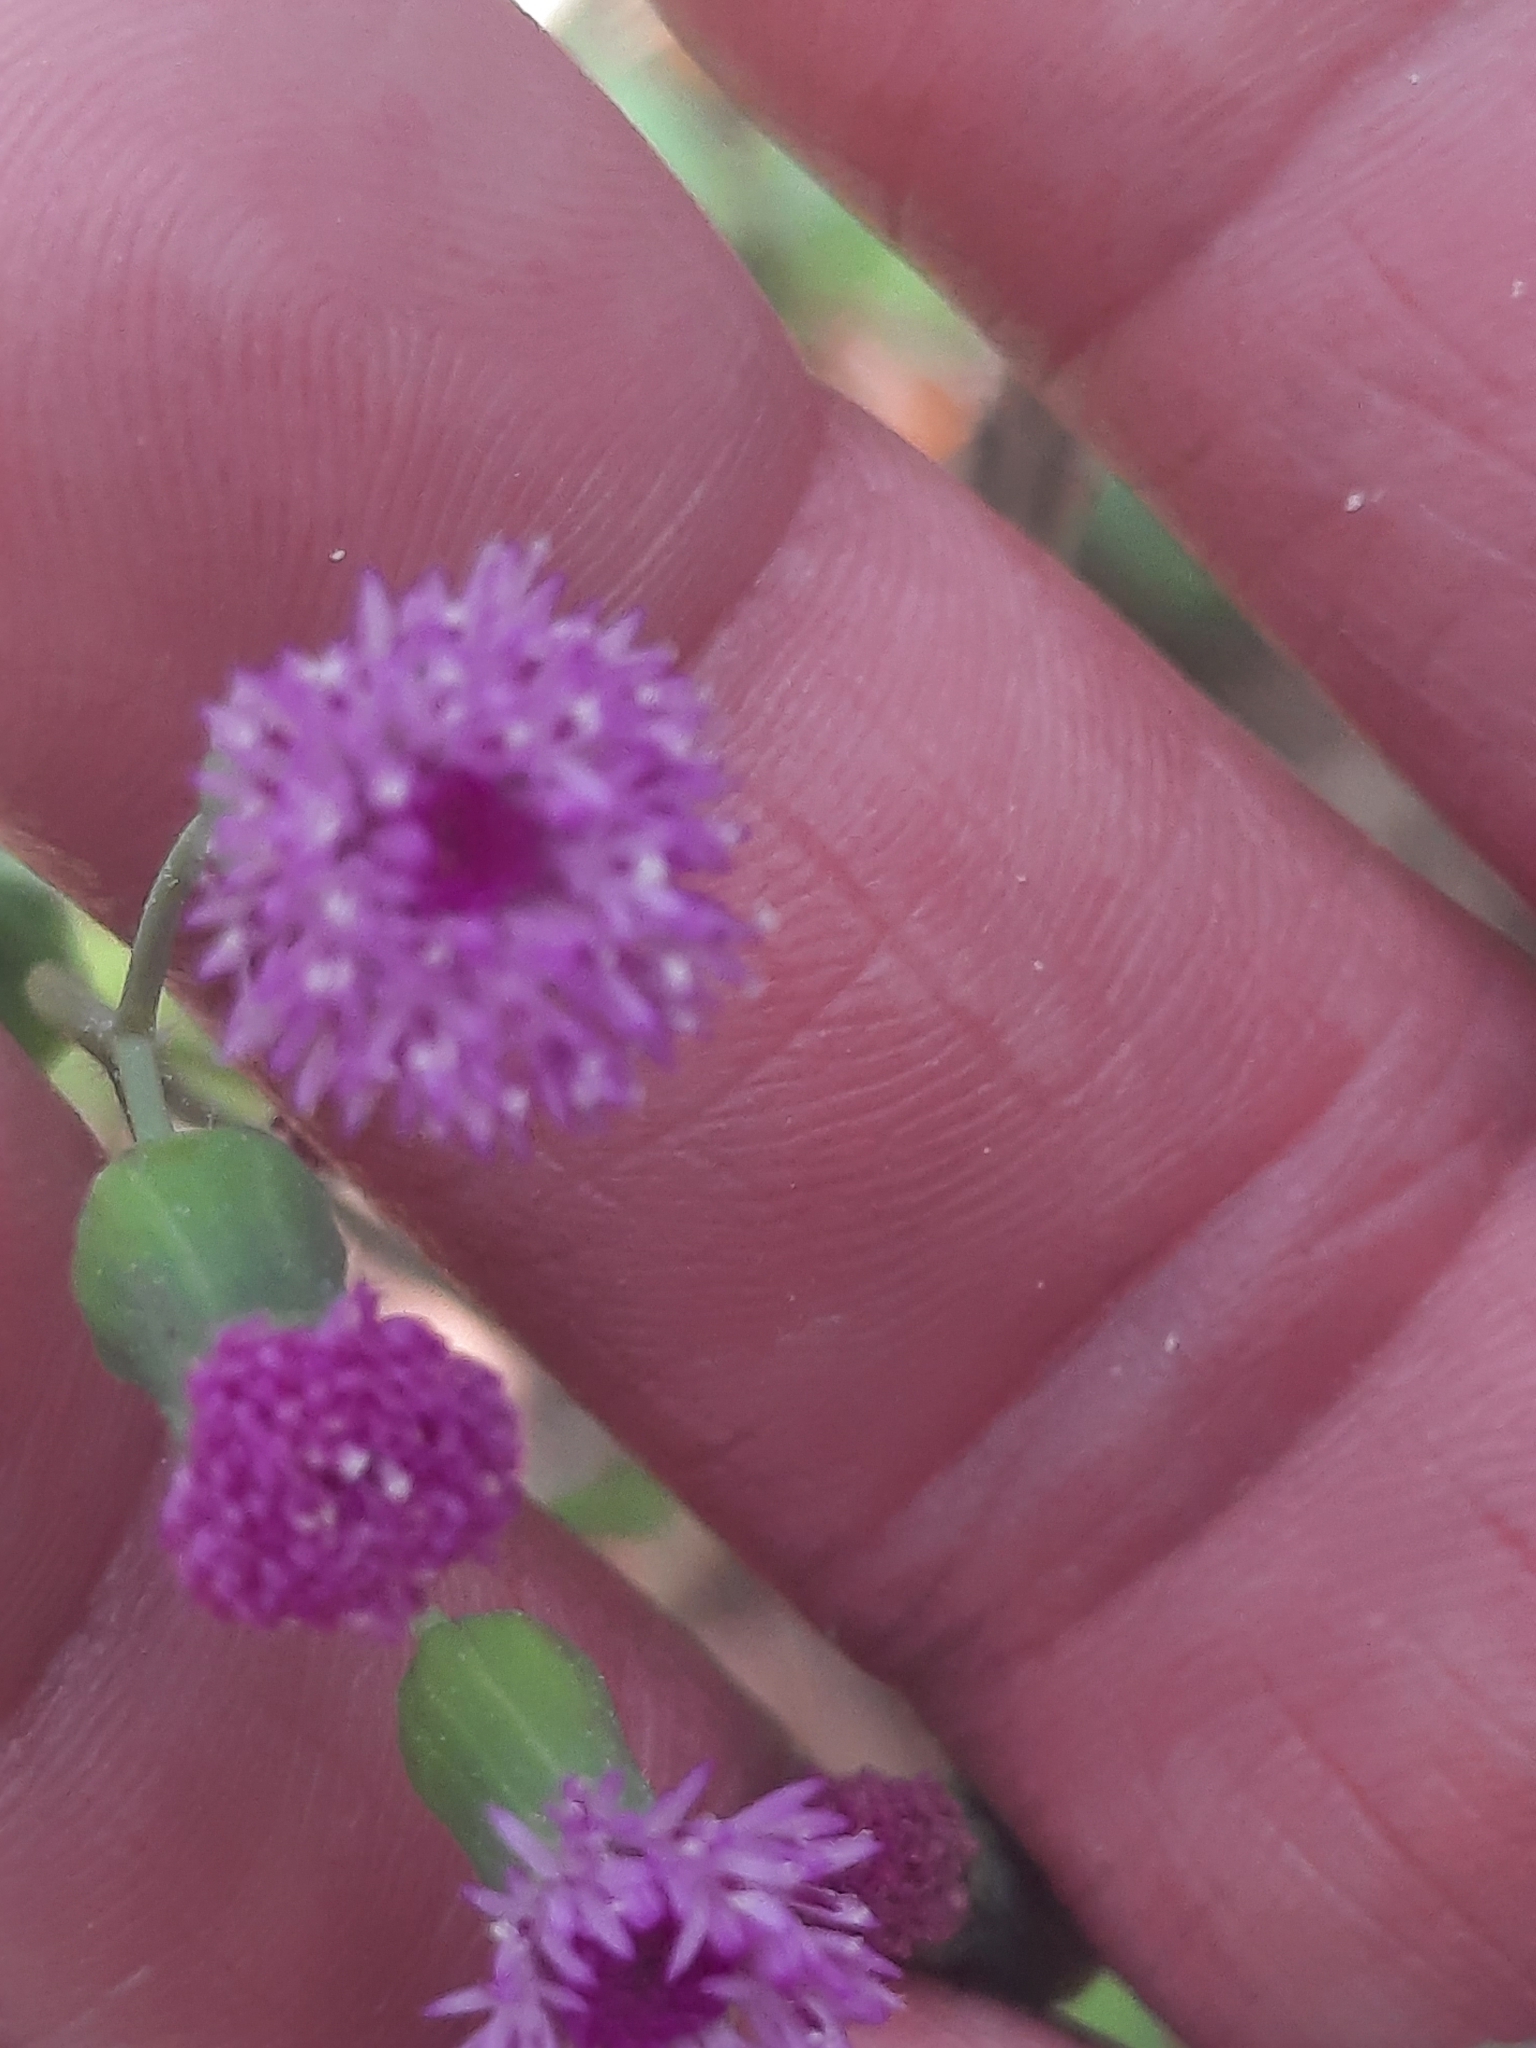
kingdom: Plantae
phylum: Tracheophyta
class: Magnoliopsida
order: Asterales
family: Asteraceae
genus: Emilia
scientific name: Emilia sonchifolia
